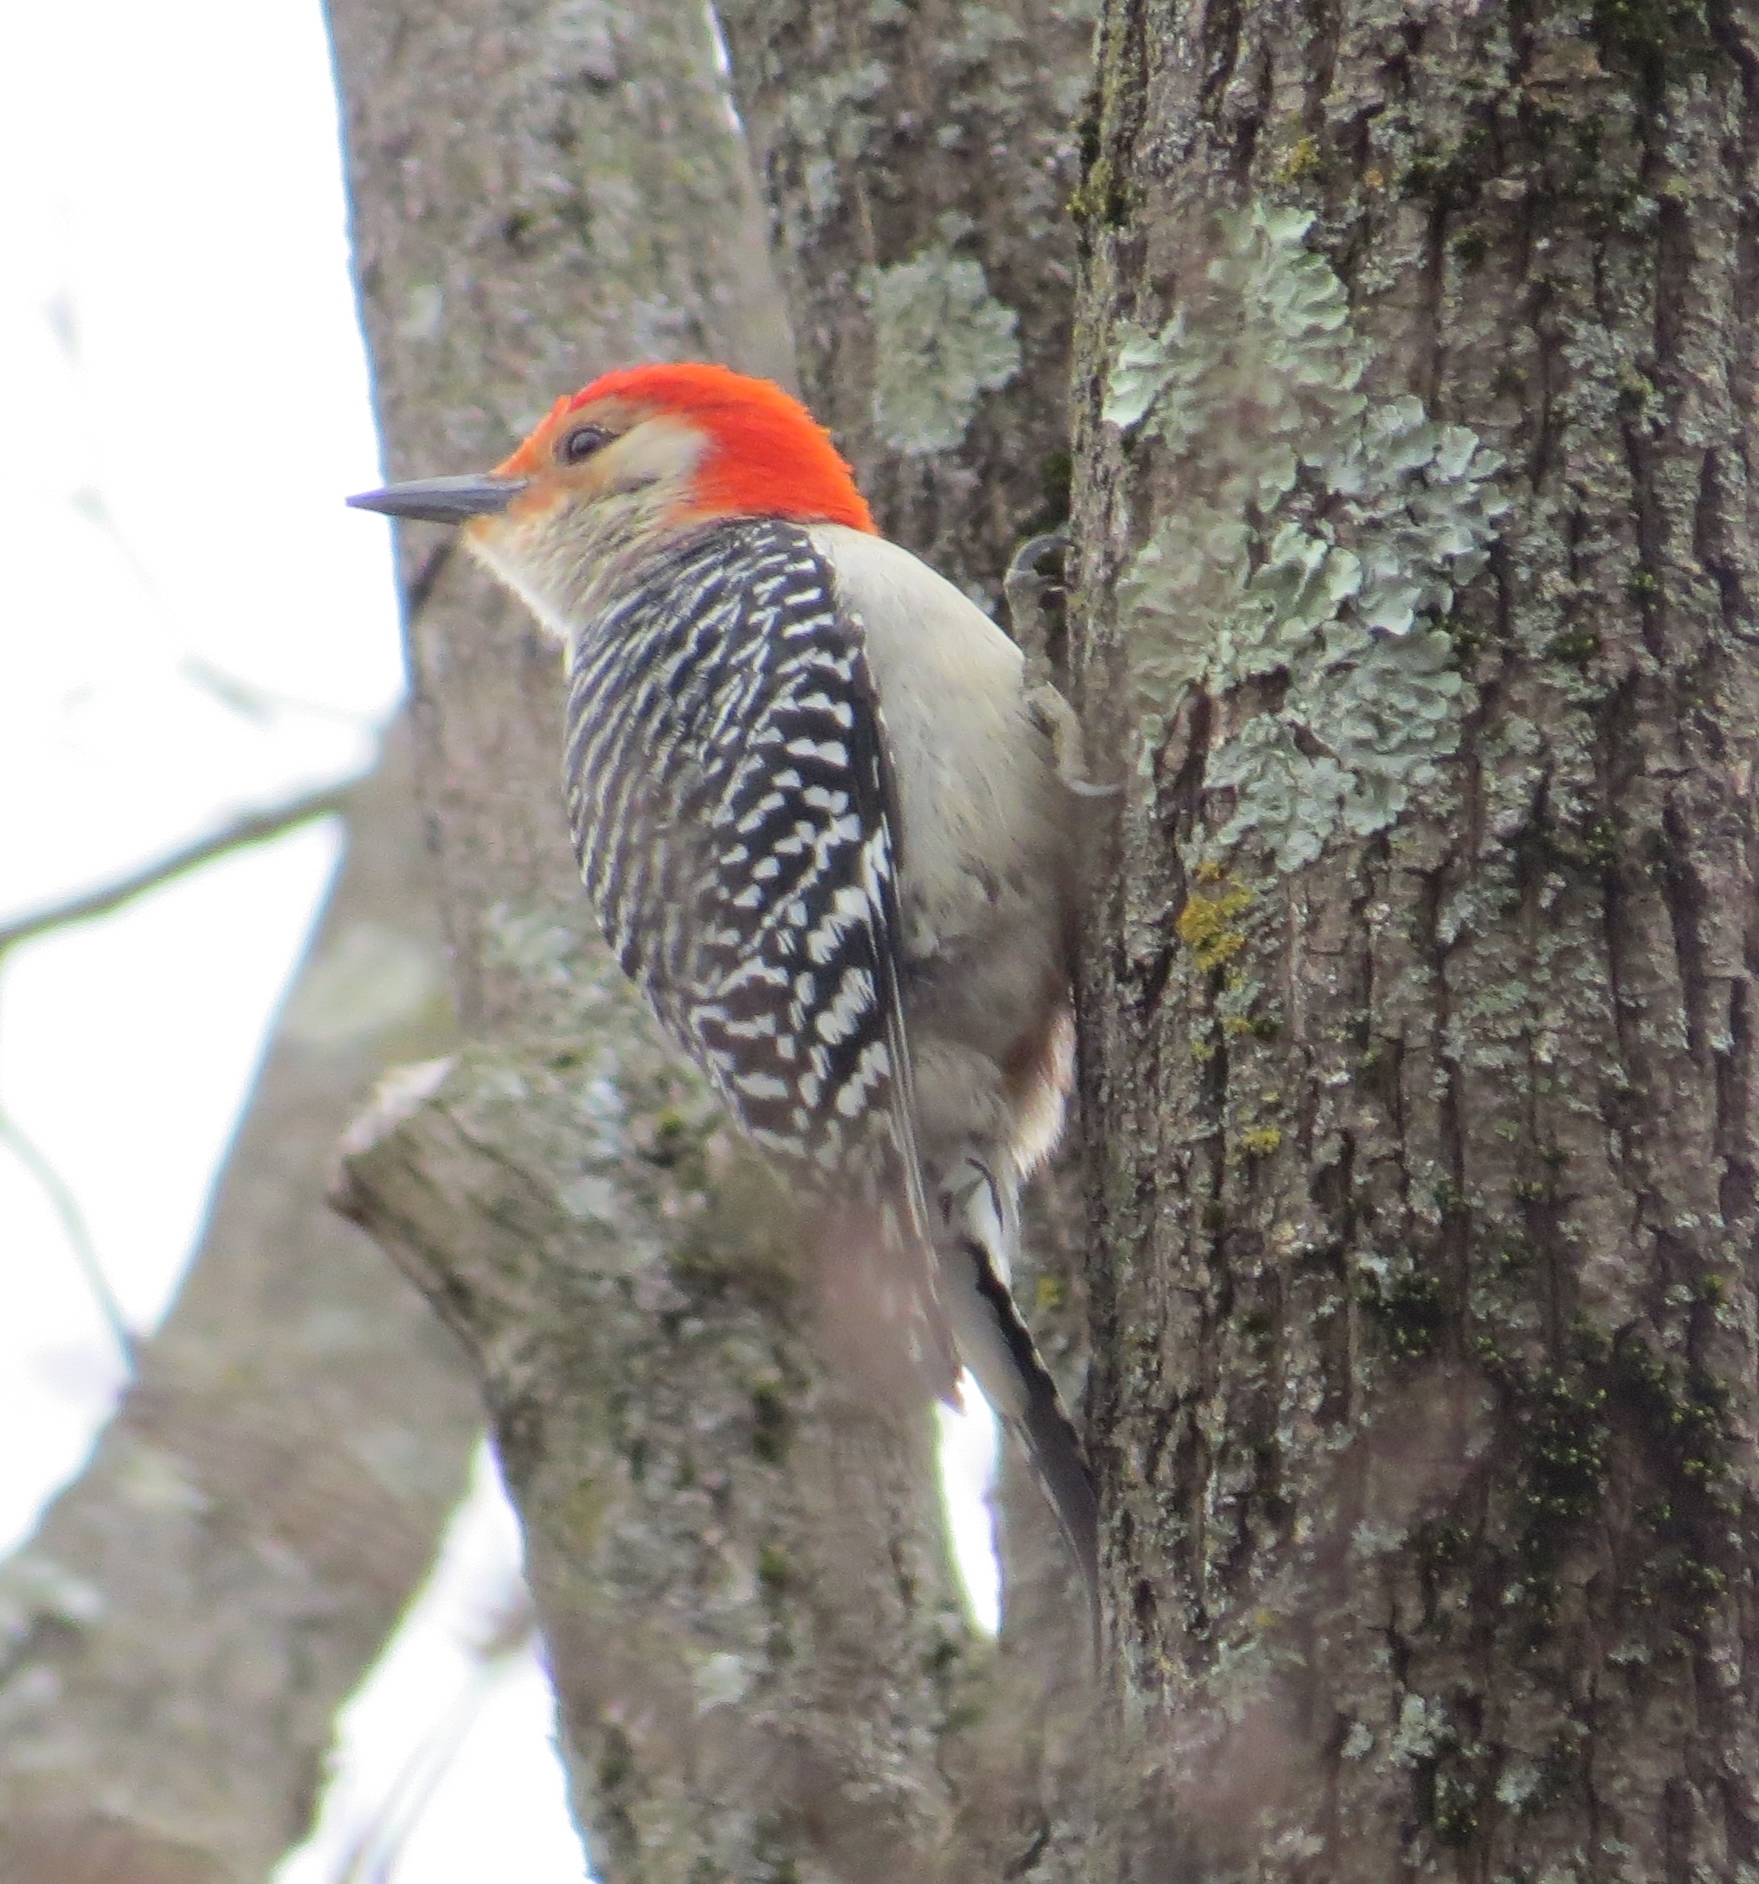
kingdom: Animalia
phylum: Chordata
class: Aves
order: Piciformes
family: Picidae
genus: Melanerpes
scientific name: Melanerpes carolinus
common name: Red-bellied woodpecker
